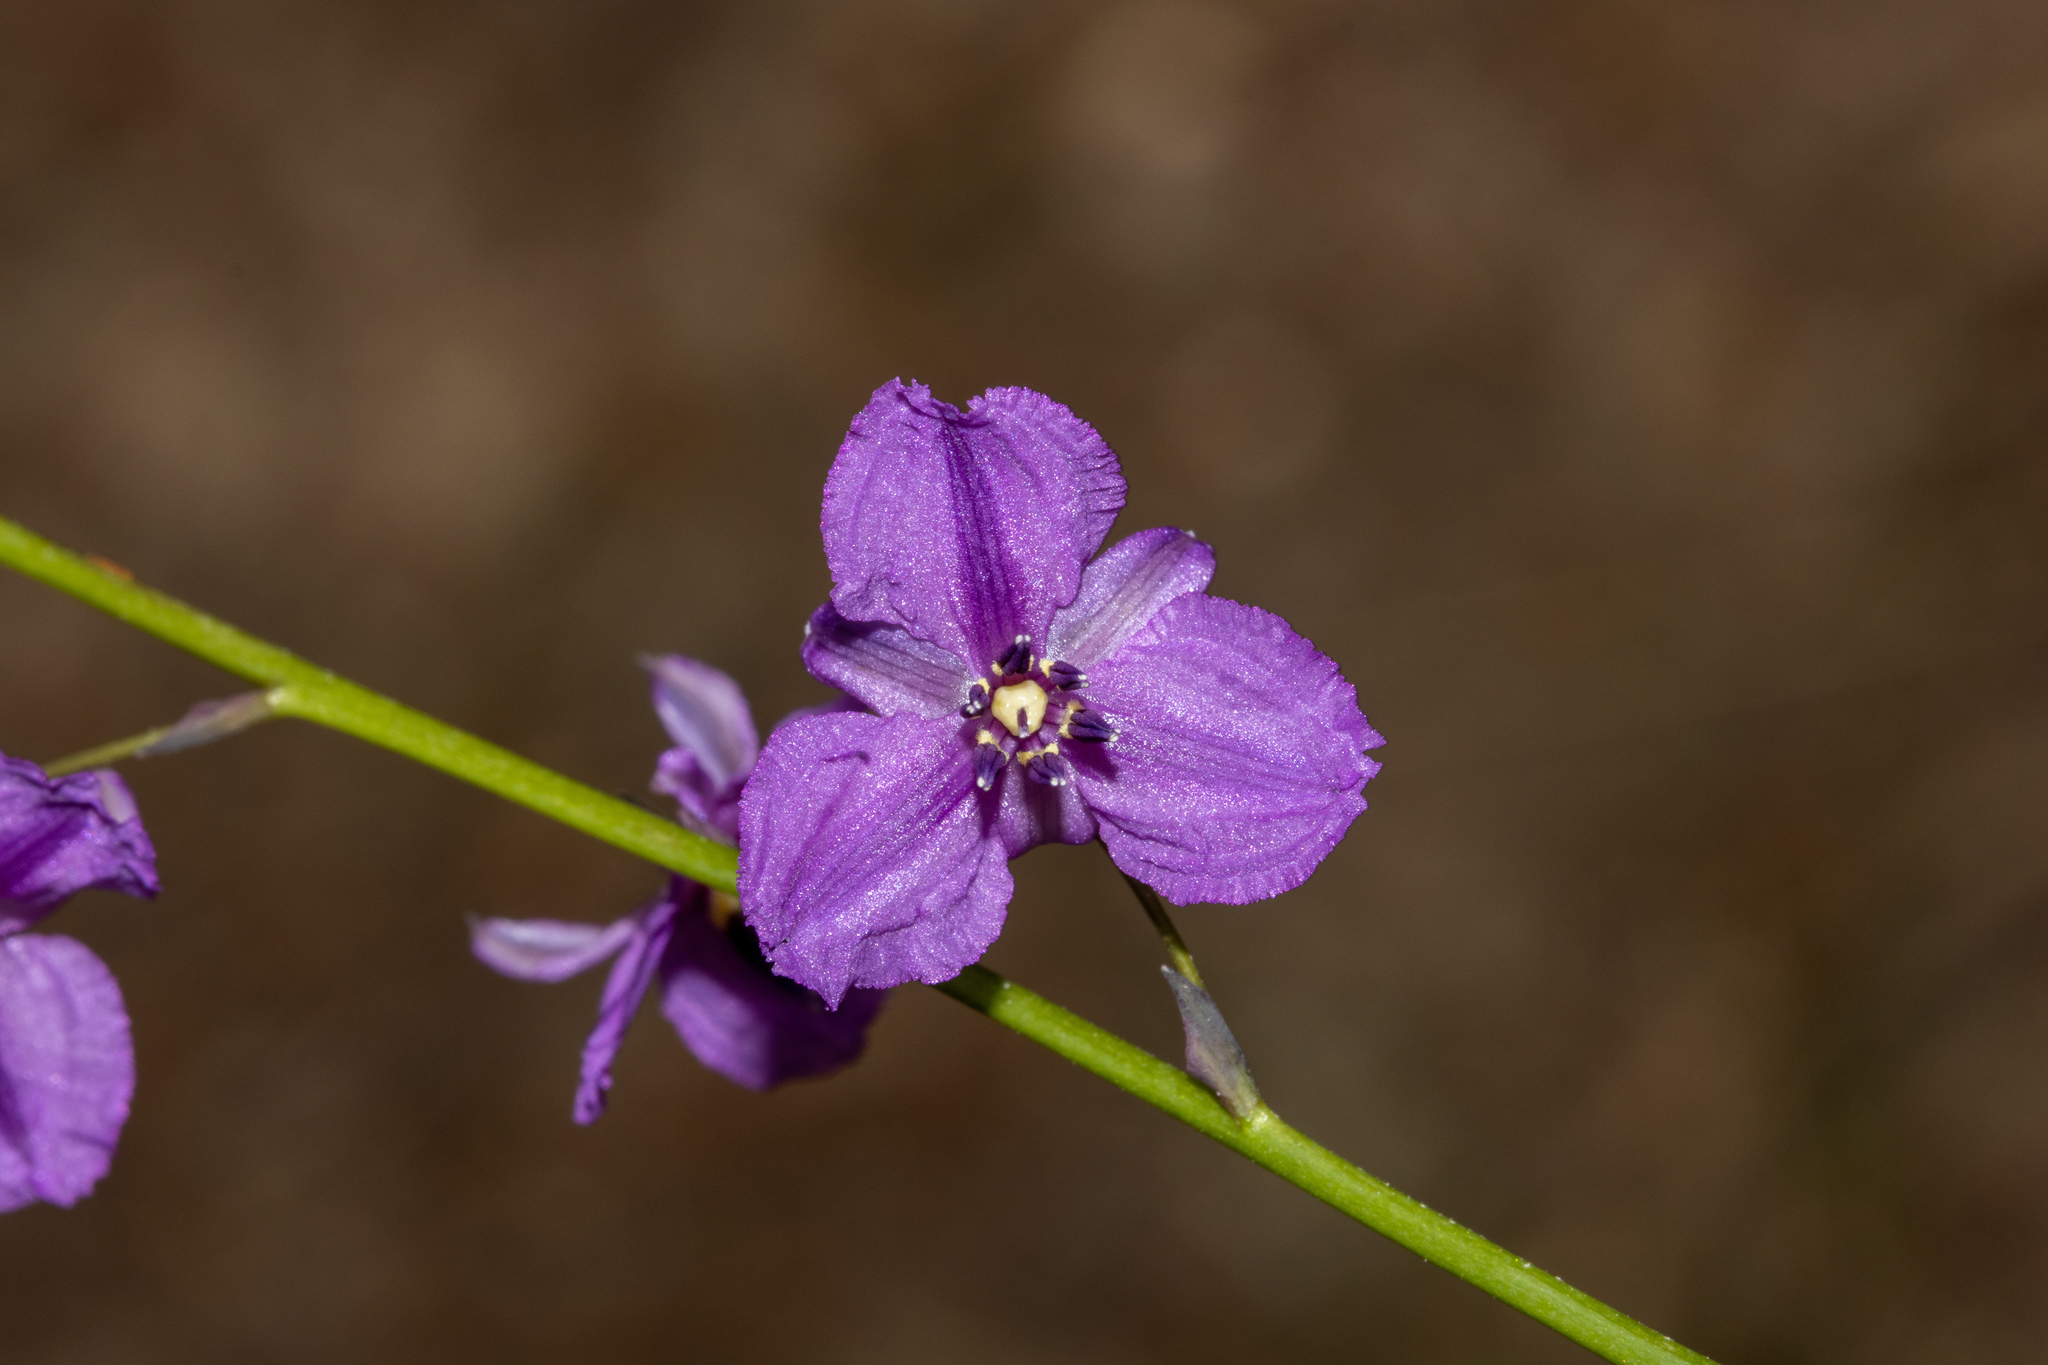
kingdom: Plantae
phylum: Tracheophyta
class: Liliopsida
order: Asparagales
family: Asparagaceae
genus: Arthropodium
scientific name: Arthropodium strictum
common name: Chocolate-lily
